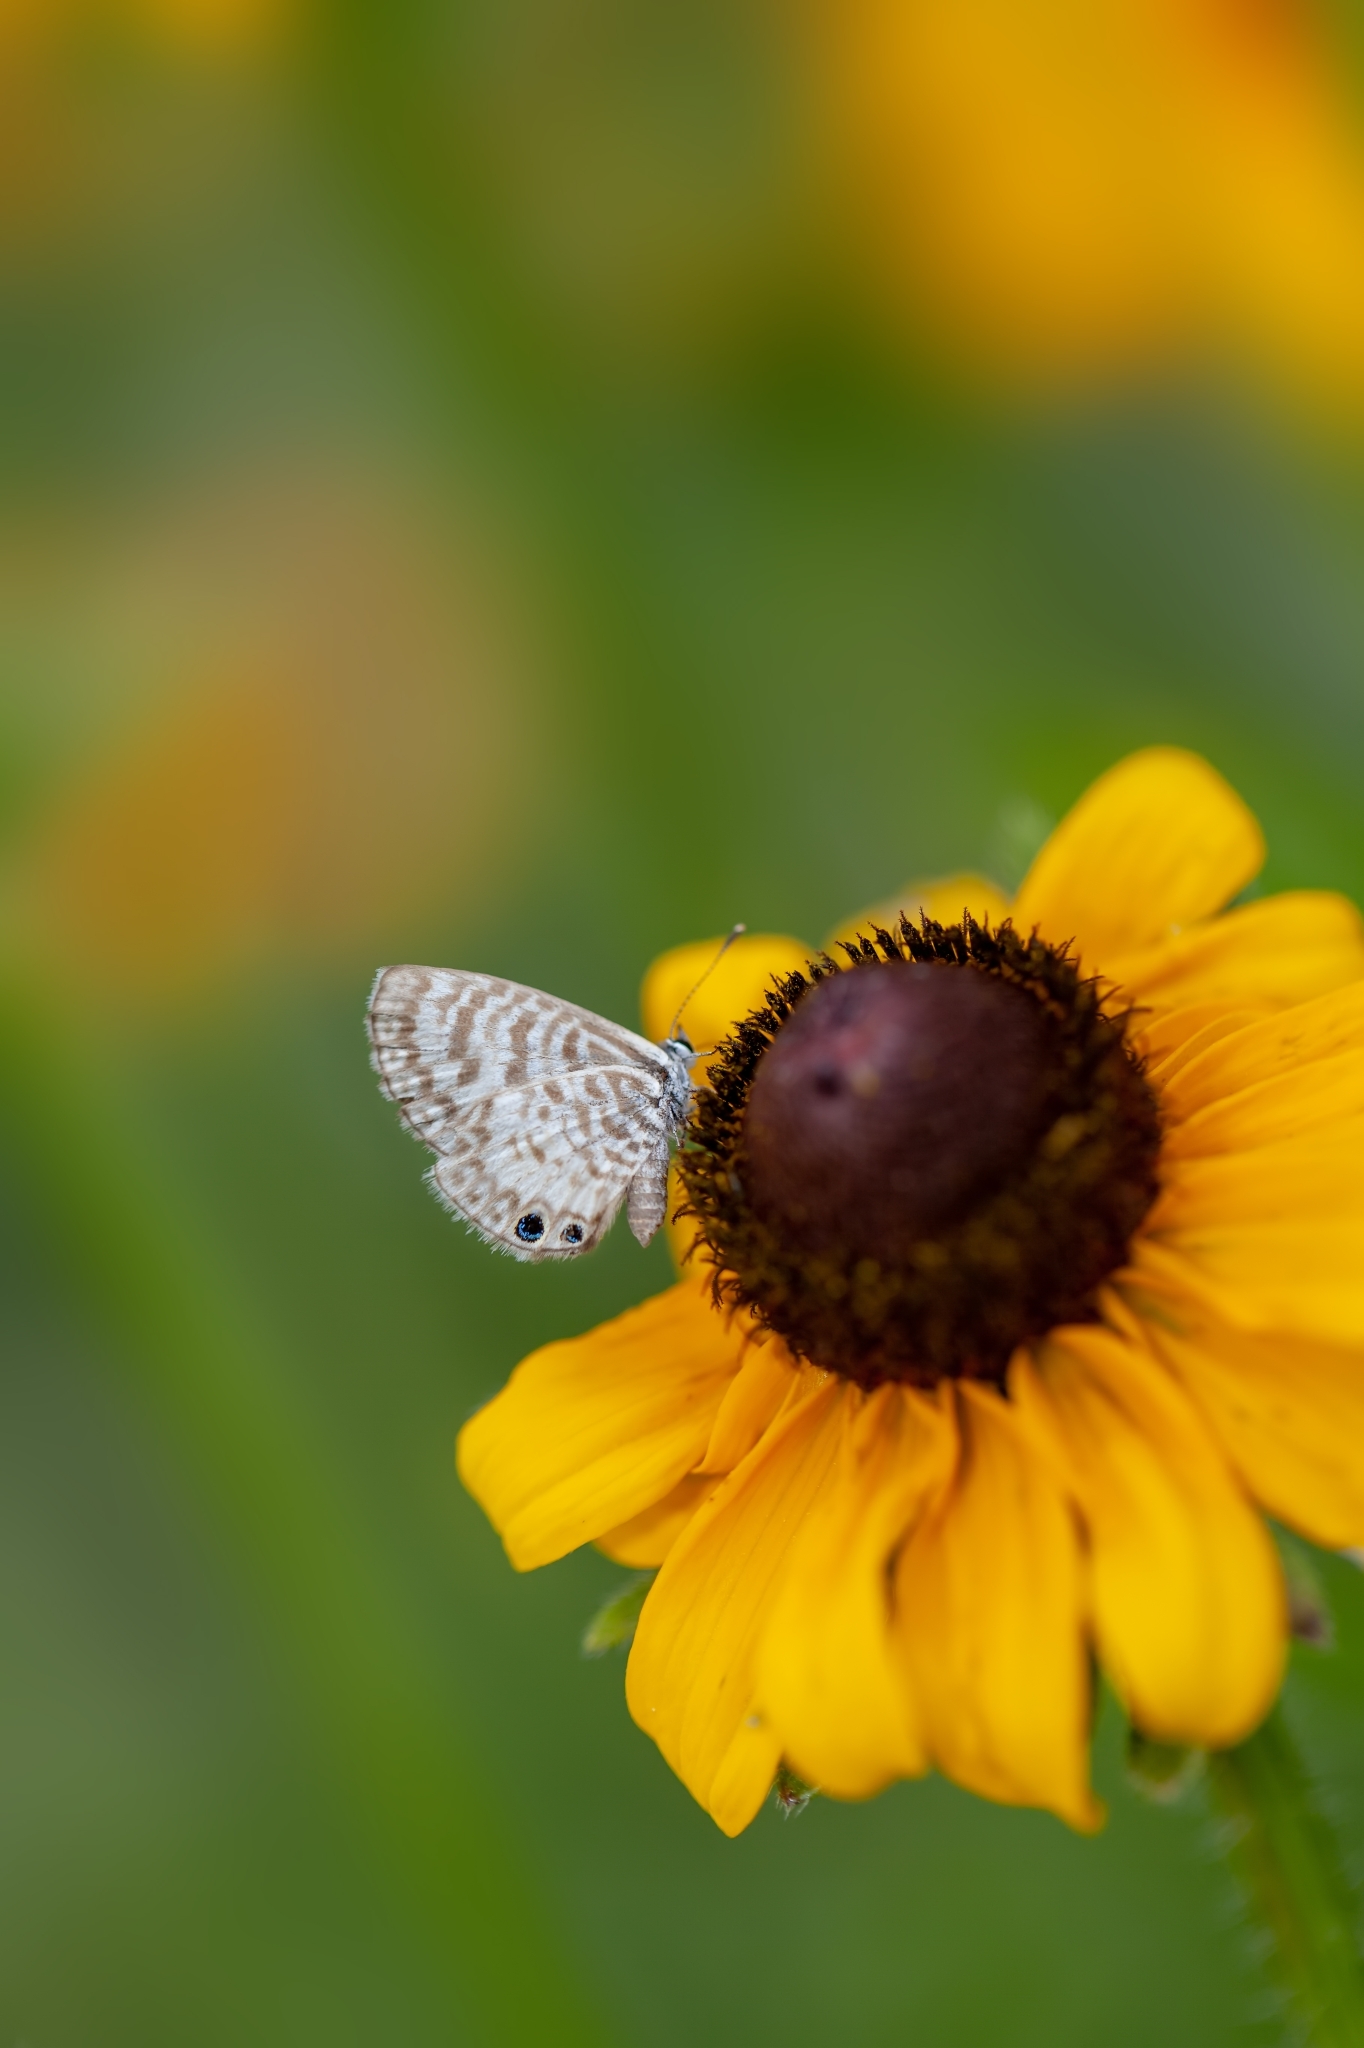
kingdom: Animalia
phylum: Arthropoda
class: Insecta
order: Lepidoptera
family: Lycaenidae
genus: Leptotes
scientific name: Leptotes cassius
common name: Cassius blue
